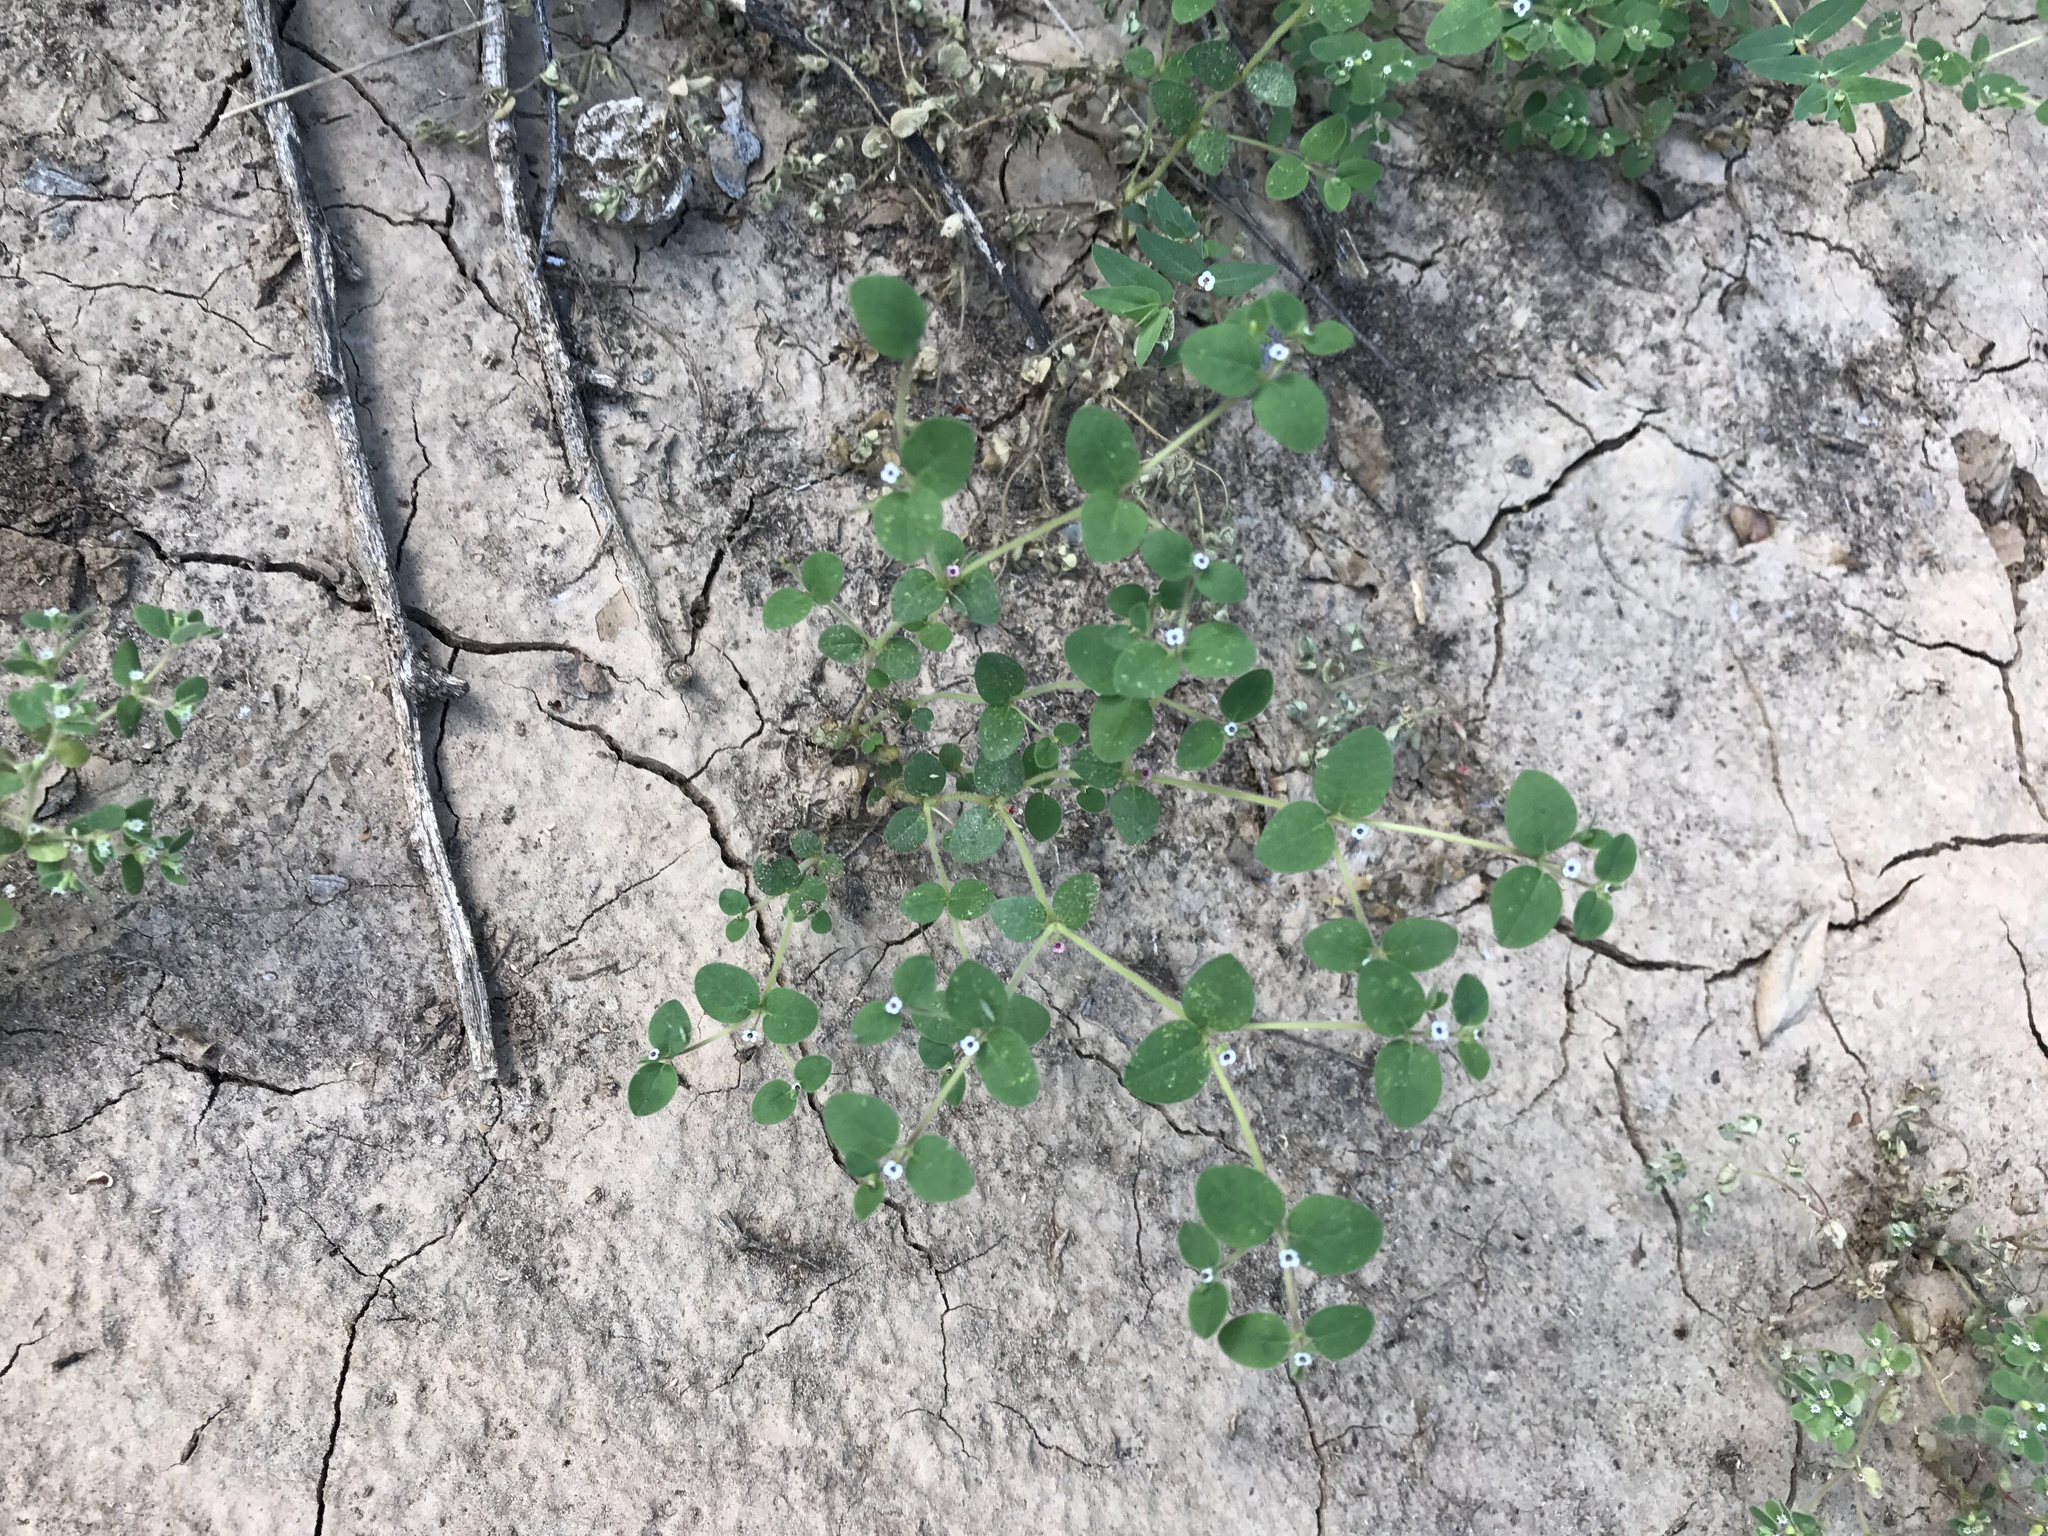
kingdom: Plantae
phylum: Tracheophyta
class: Magnoliopsida
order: Malpighiales
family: Euphorbiaceae
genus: Euphorbia
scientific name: Euphorbia arizonica
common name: Arizona spurge
